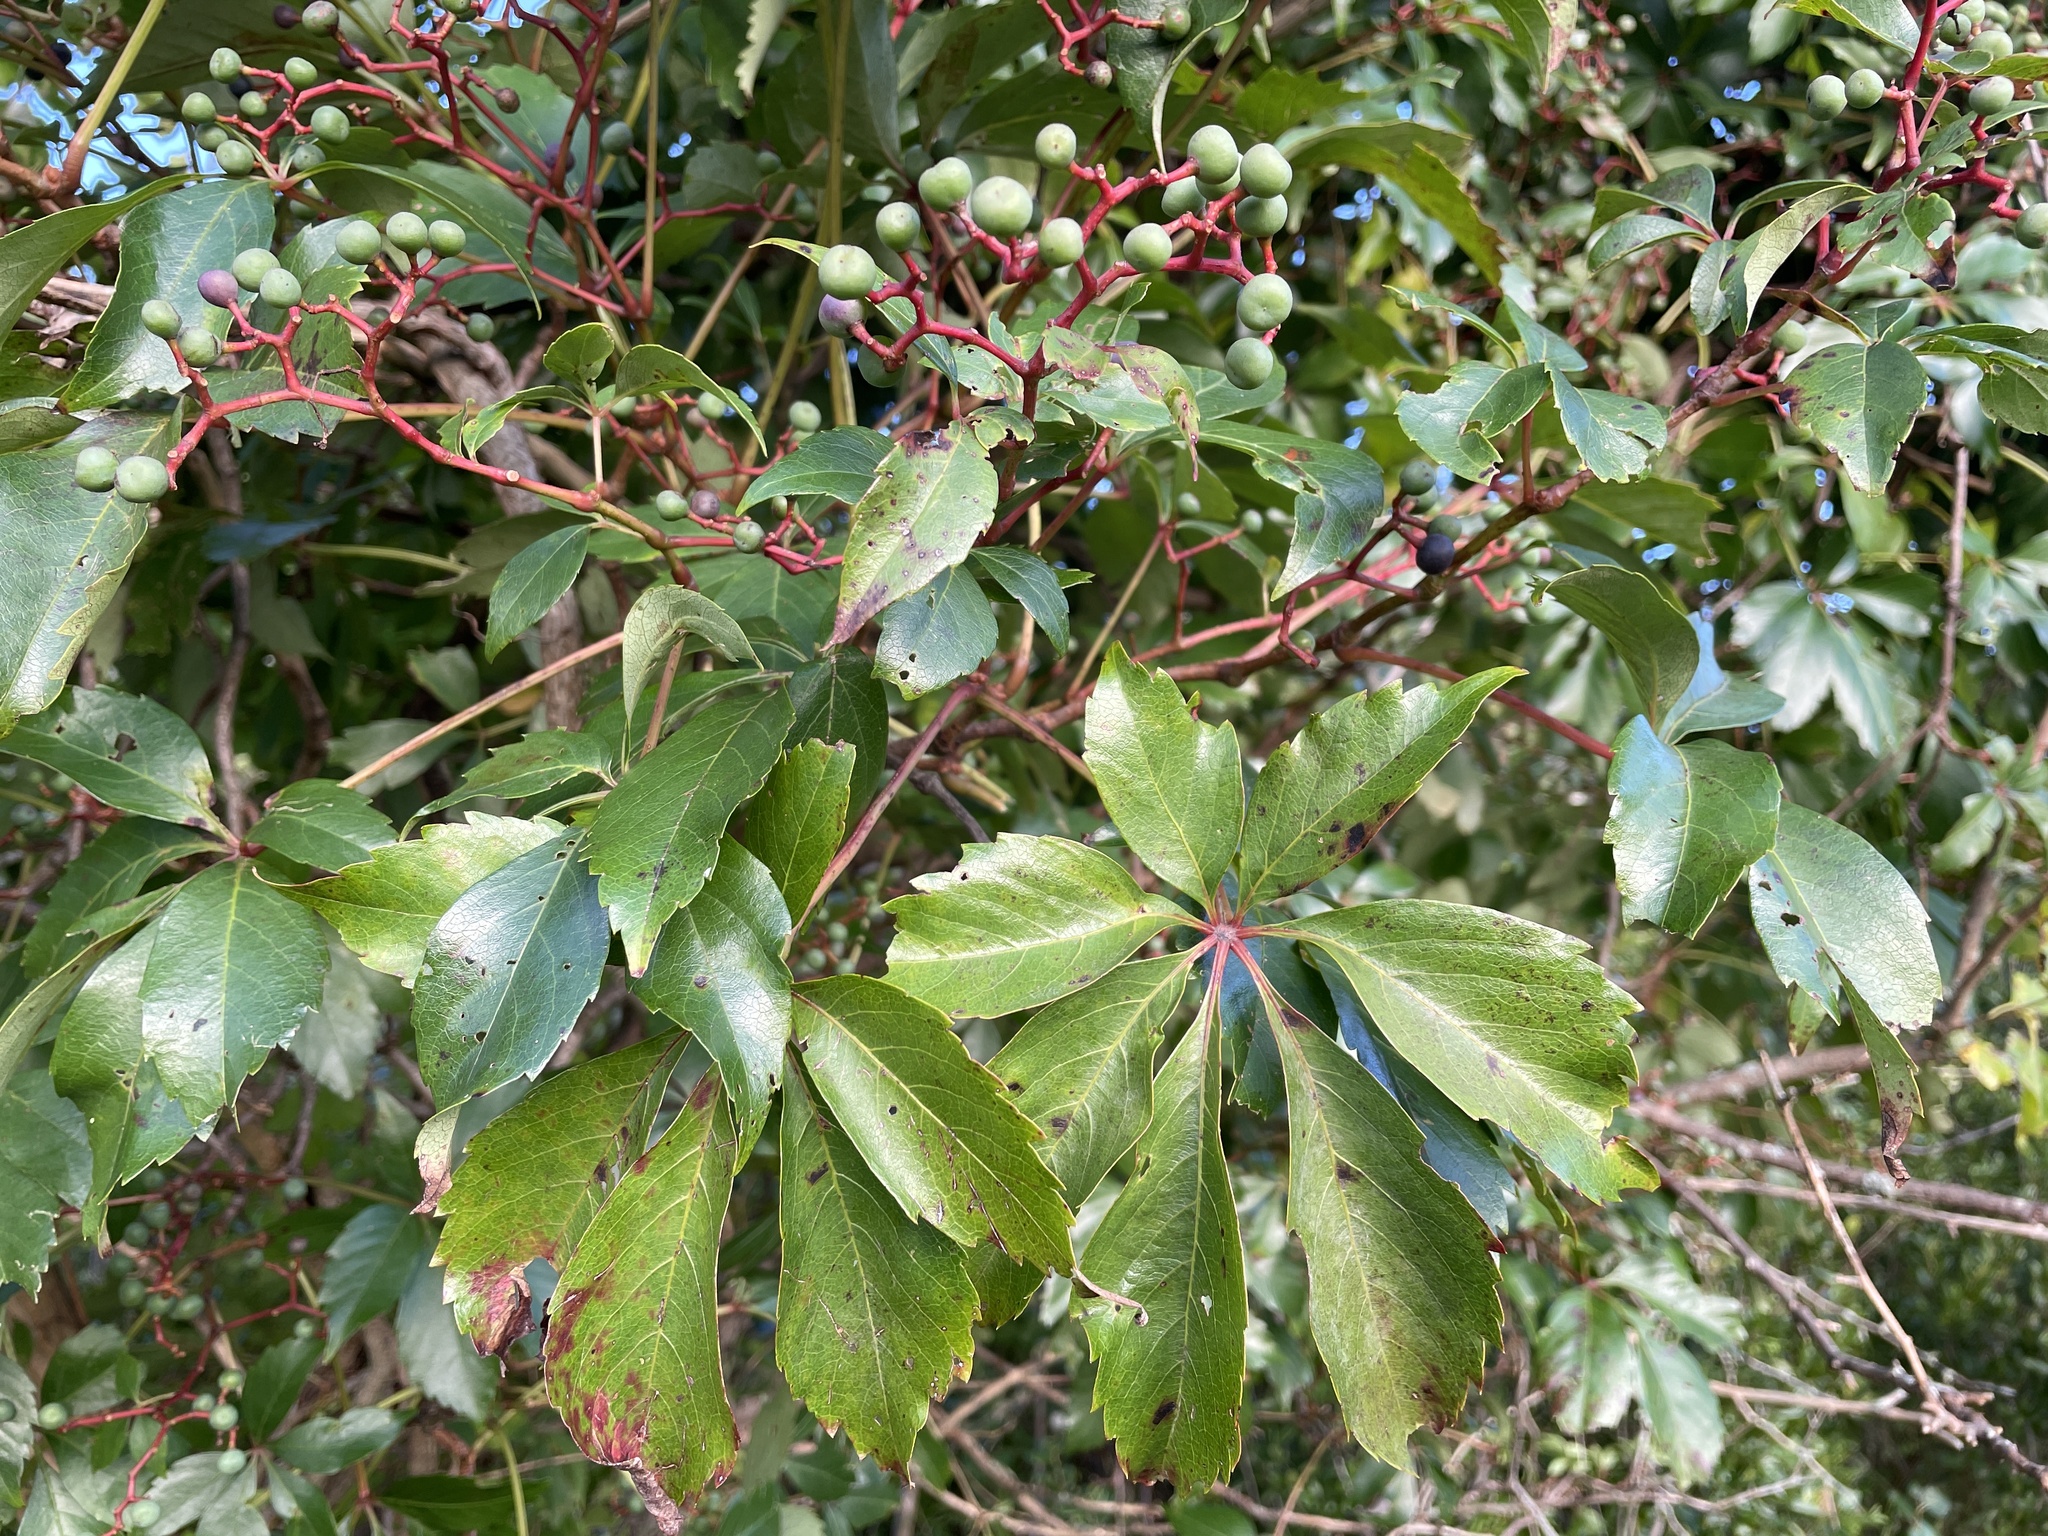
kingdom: Plantae
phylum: Tracheophyta
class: Magnoliopsida
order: Vitales
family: Vitaceae
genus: Parthenocissus
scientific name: Parthenocissus quinquefolia
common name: Virginia-creeper
